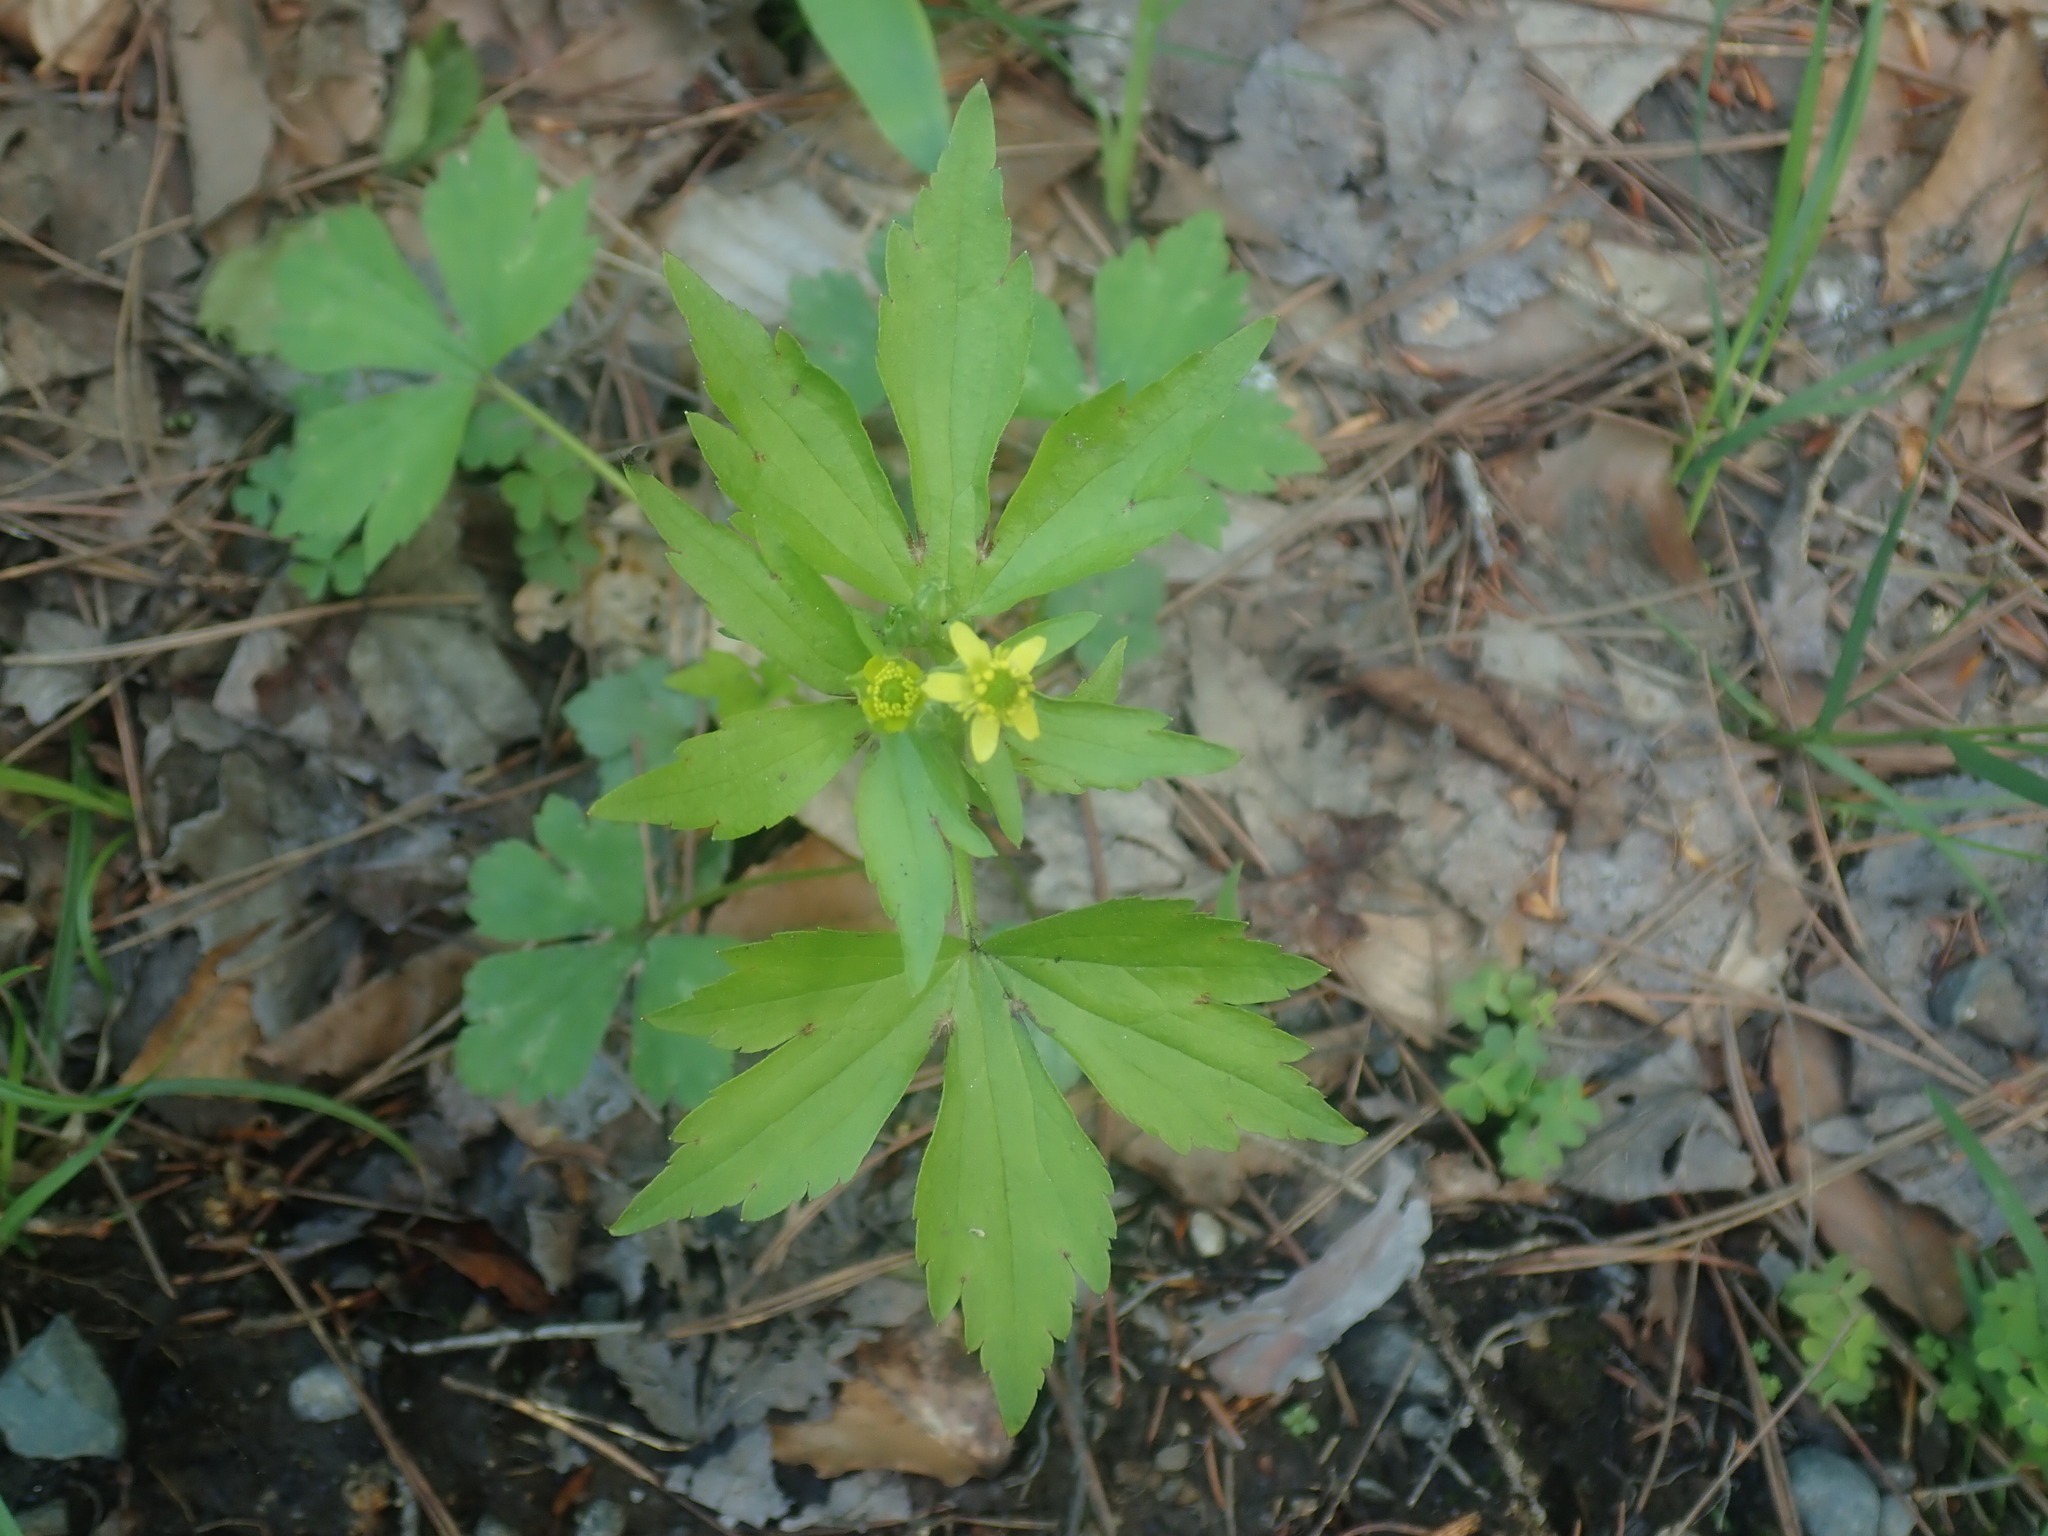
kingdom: Plantae
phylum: Tracheophyta
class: Magnoliopsida
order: Ranunculales
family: Ranunculaceae
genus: Ranunculus
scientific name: Ranunculus recurvatus
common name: Blisterwort
